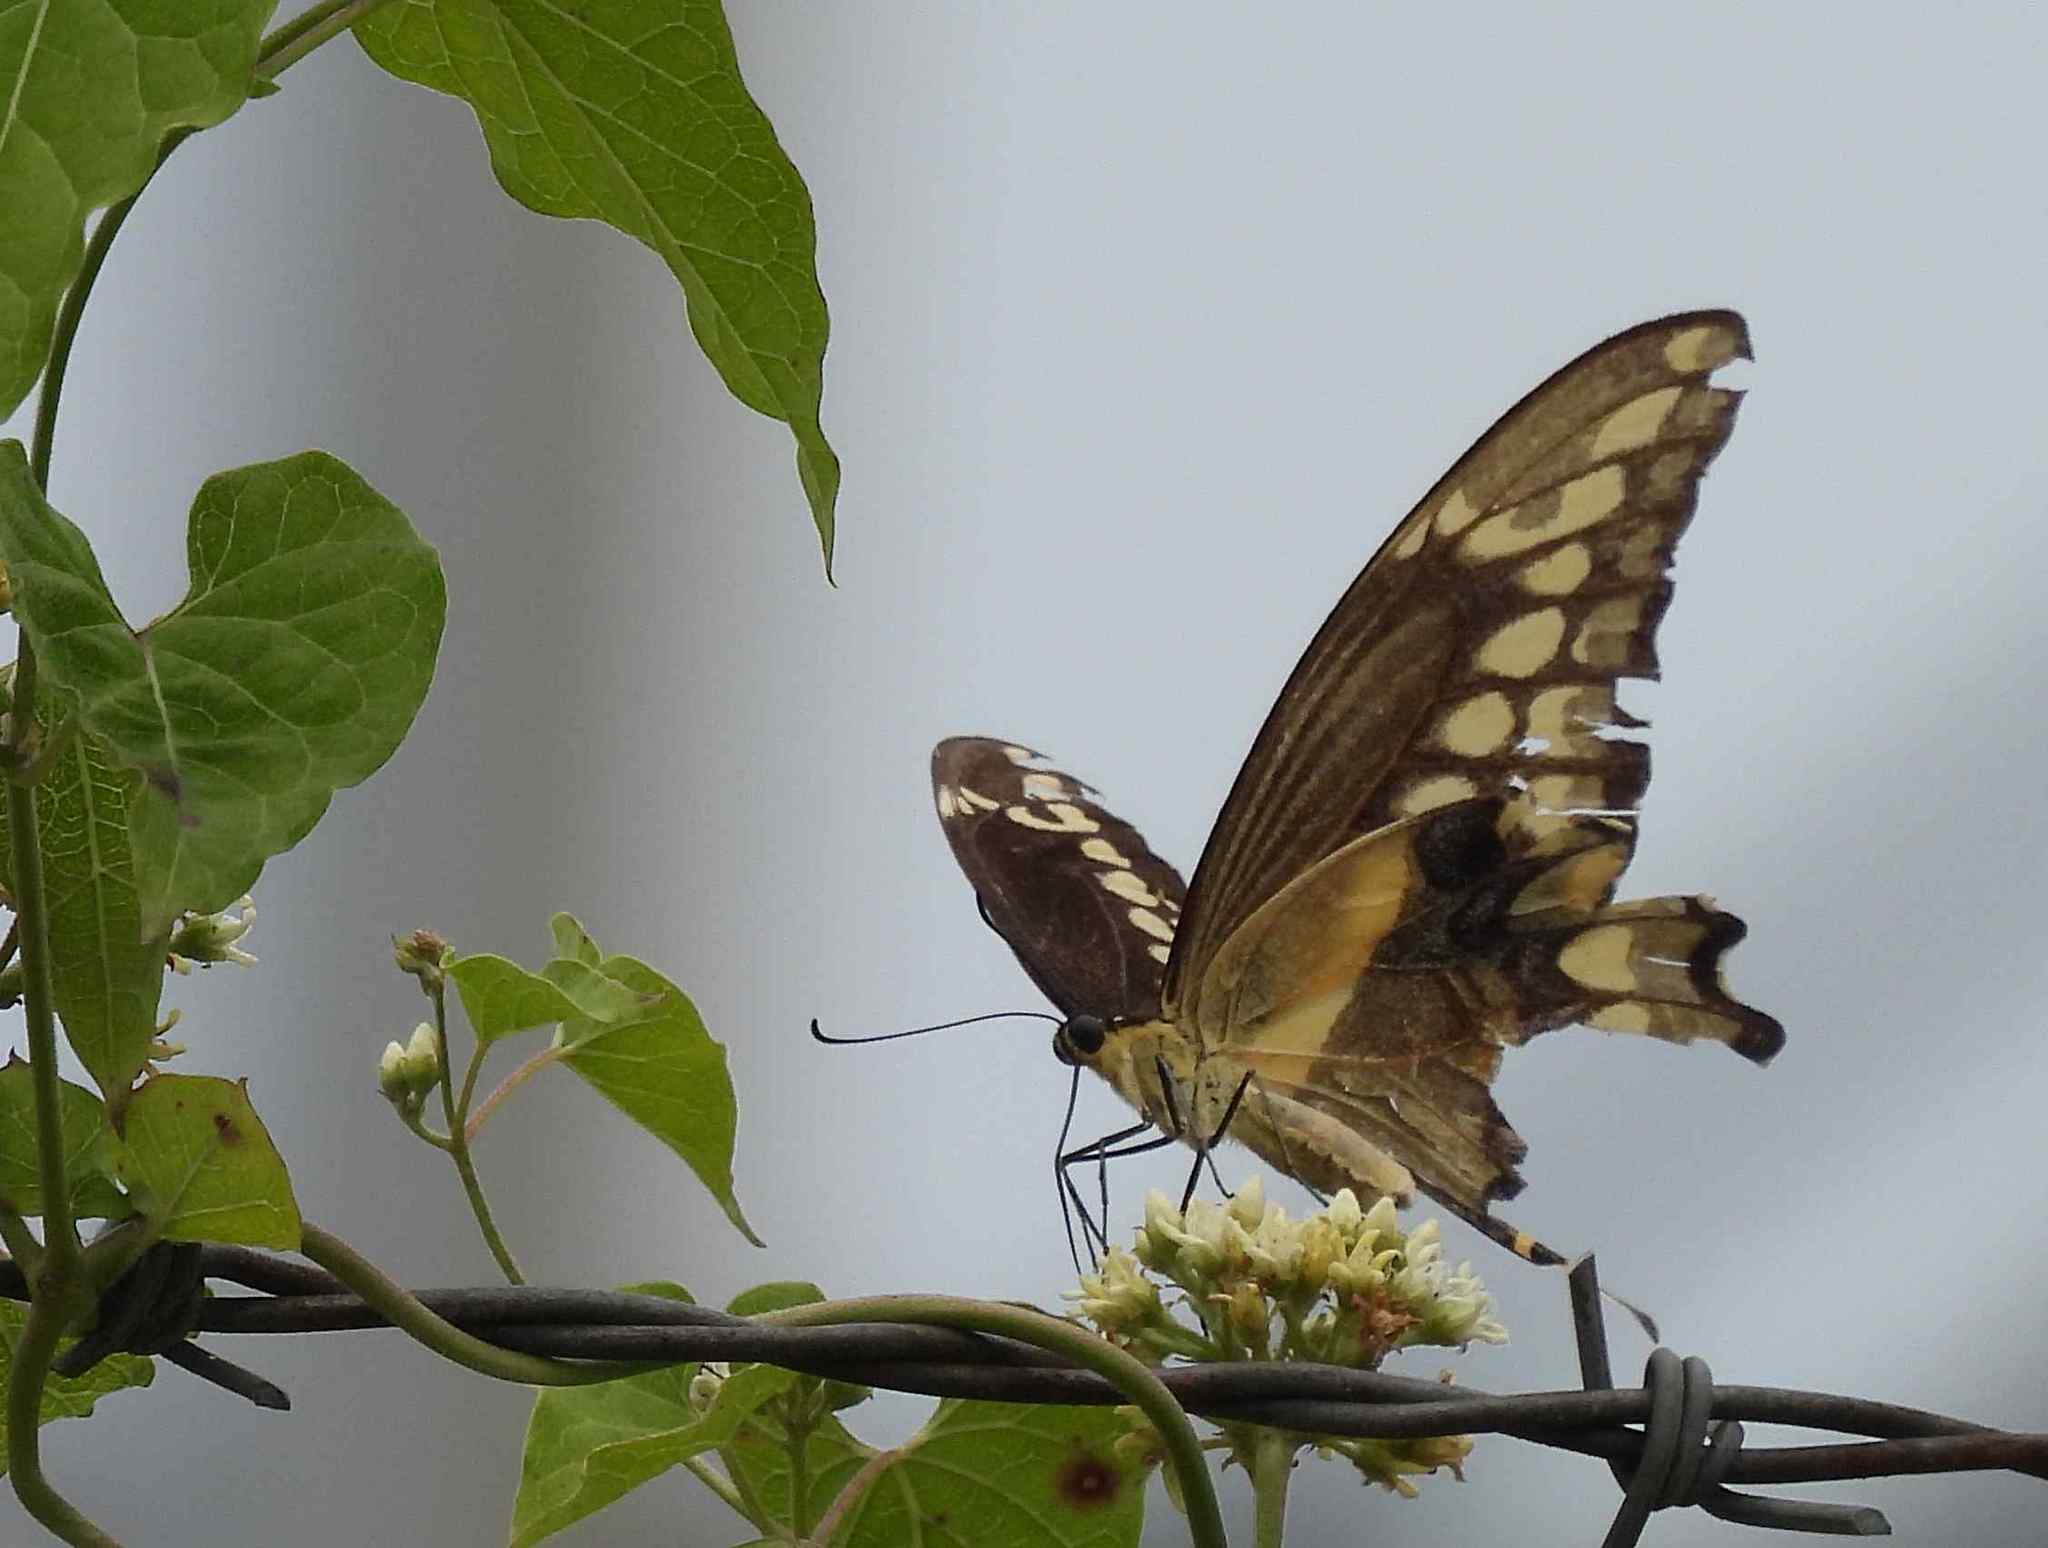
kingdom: Animalia
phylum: Arthropoda
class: Insecta
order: Lepidoptera
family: Papilionidae
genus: Papilio
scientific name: Papilio cresphontes
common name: Giant swallowtail
